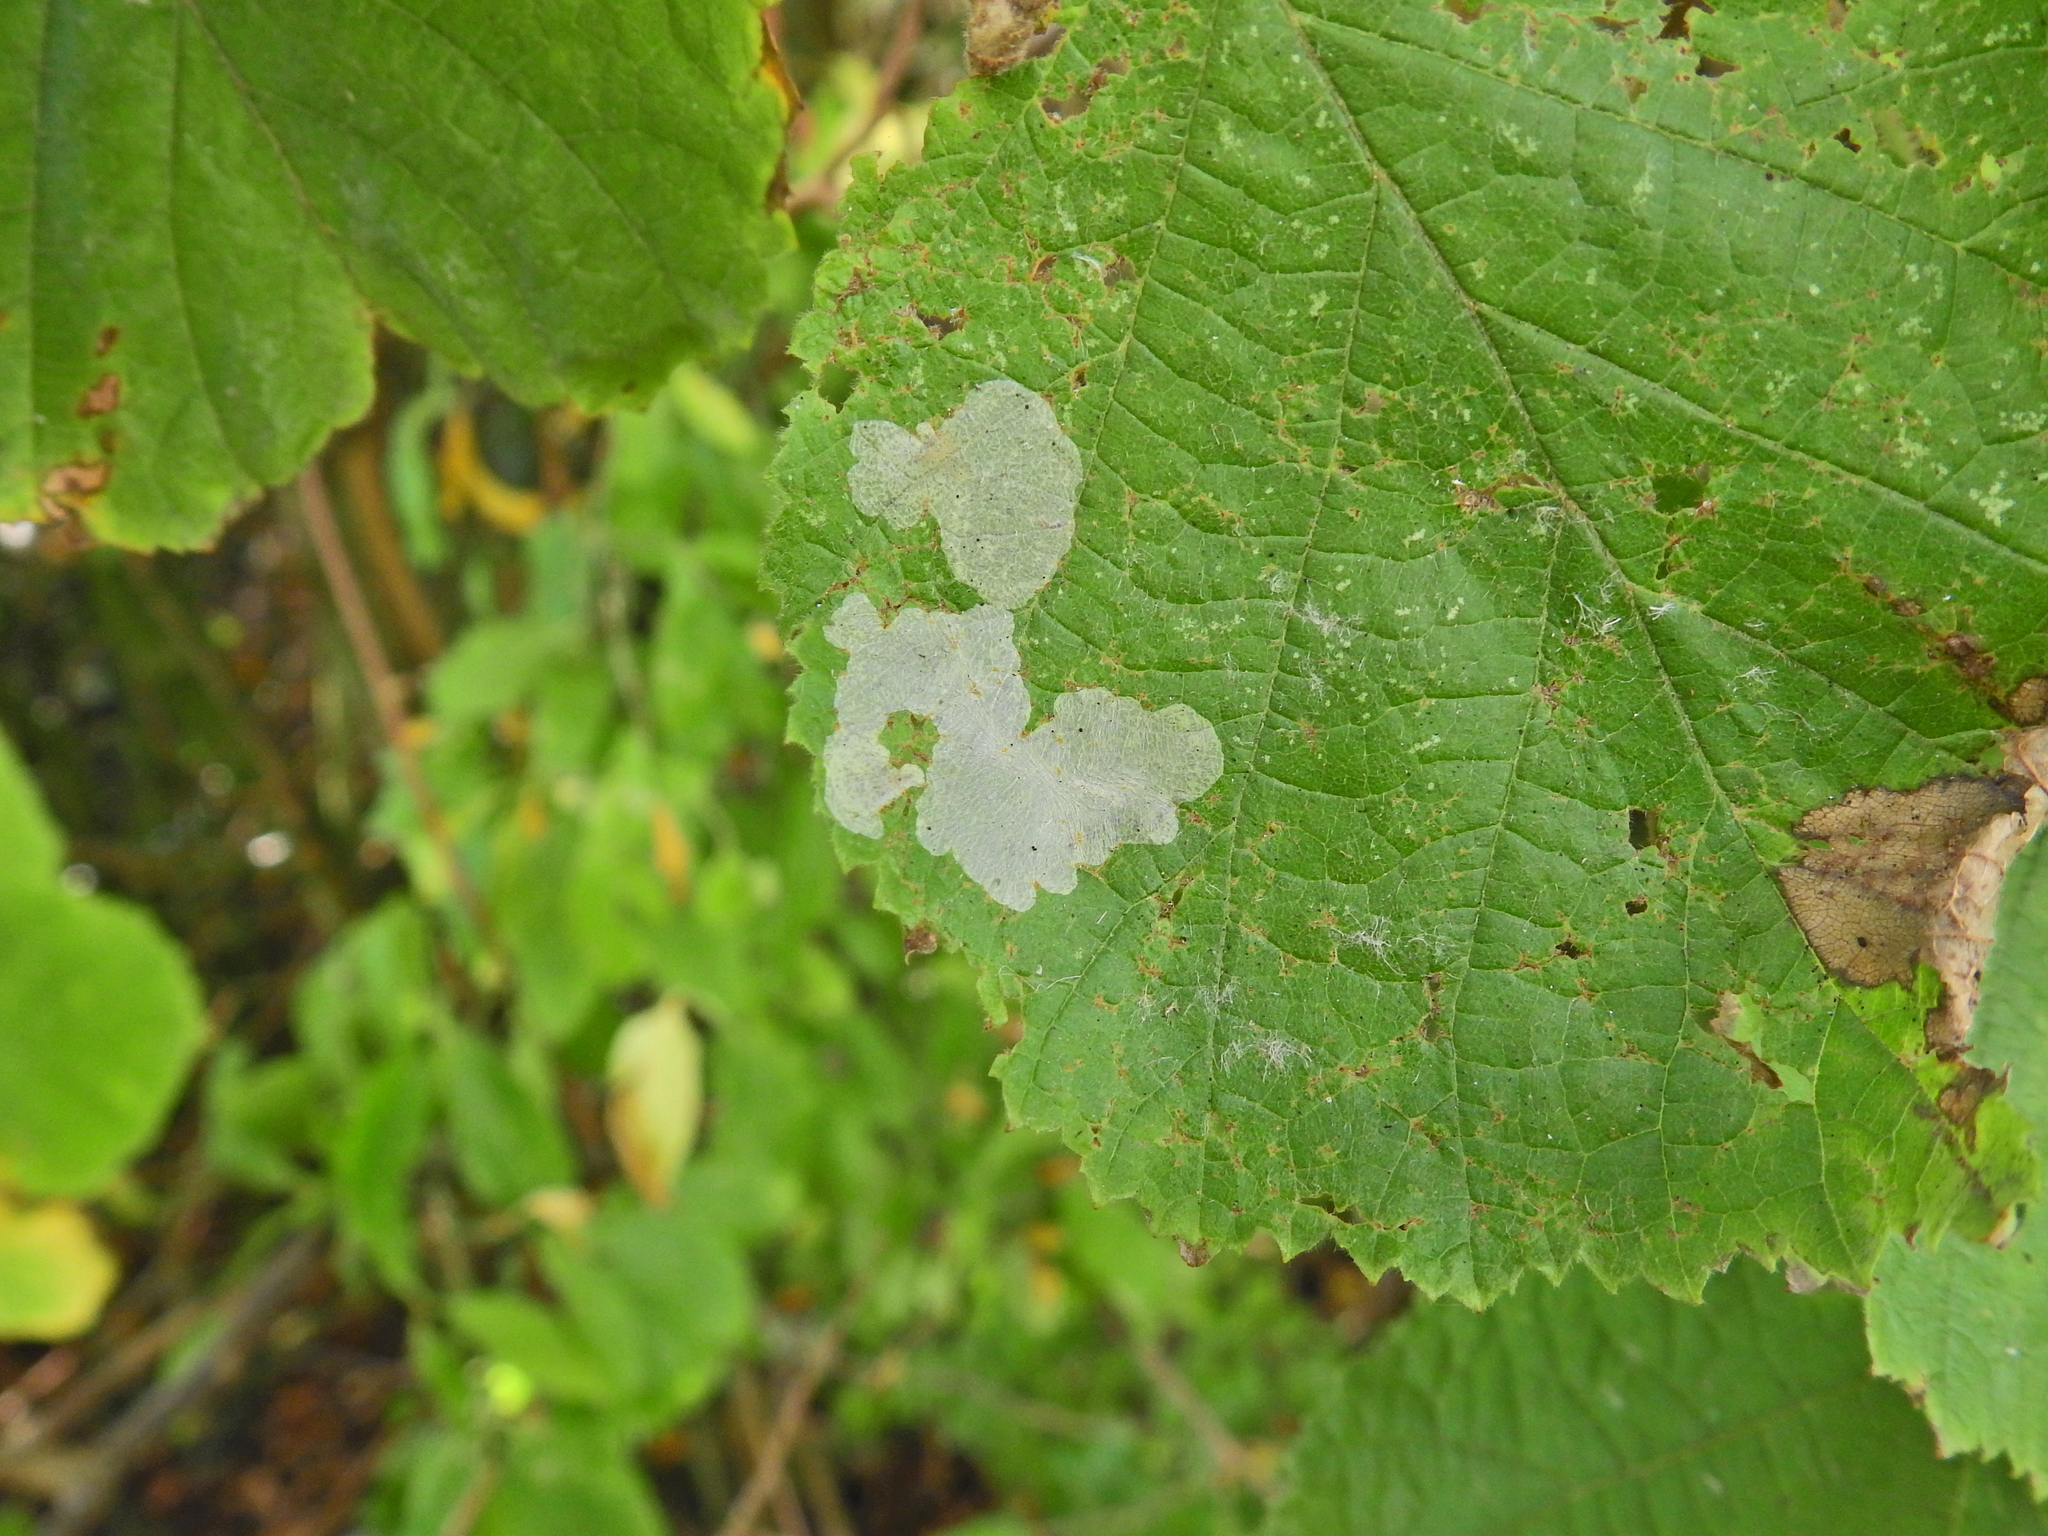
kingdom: Animalia
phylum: Arthropoda
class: Insecta
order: Lepidoptera
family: Gracillariidae
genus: Phyllonorycter
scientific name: Phyllonorycter coryli
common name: Nut-leaf blister moth
